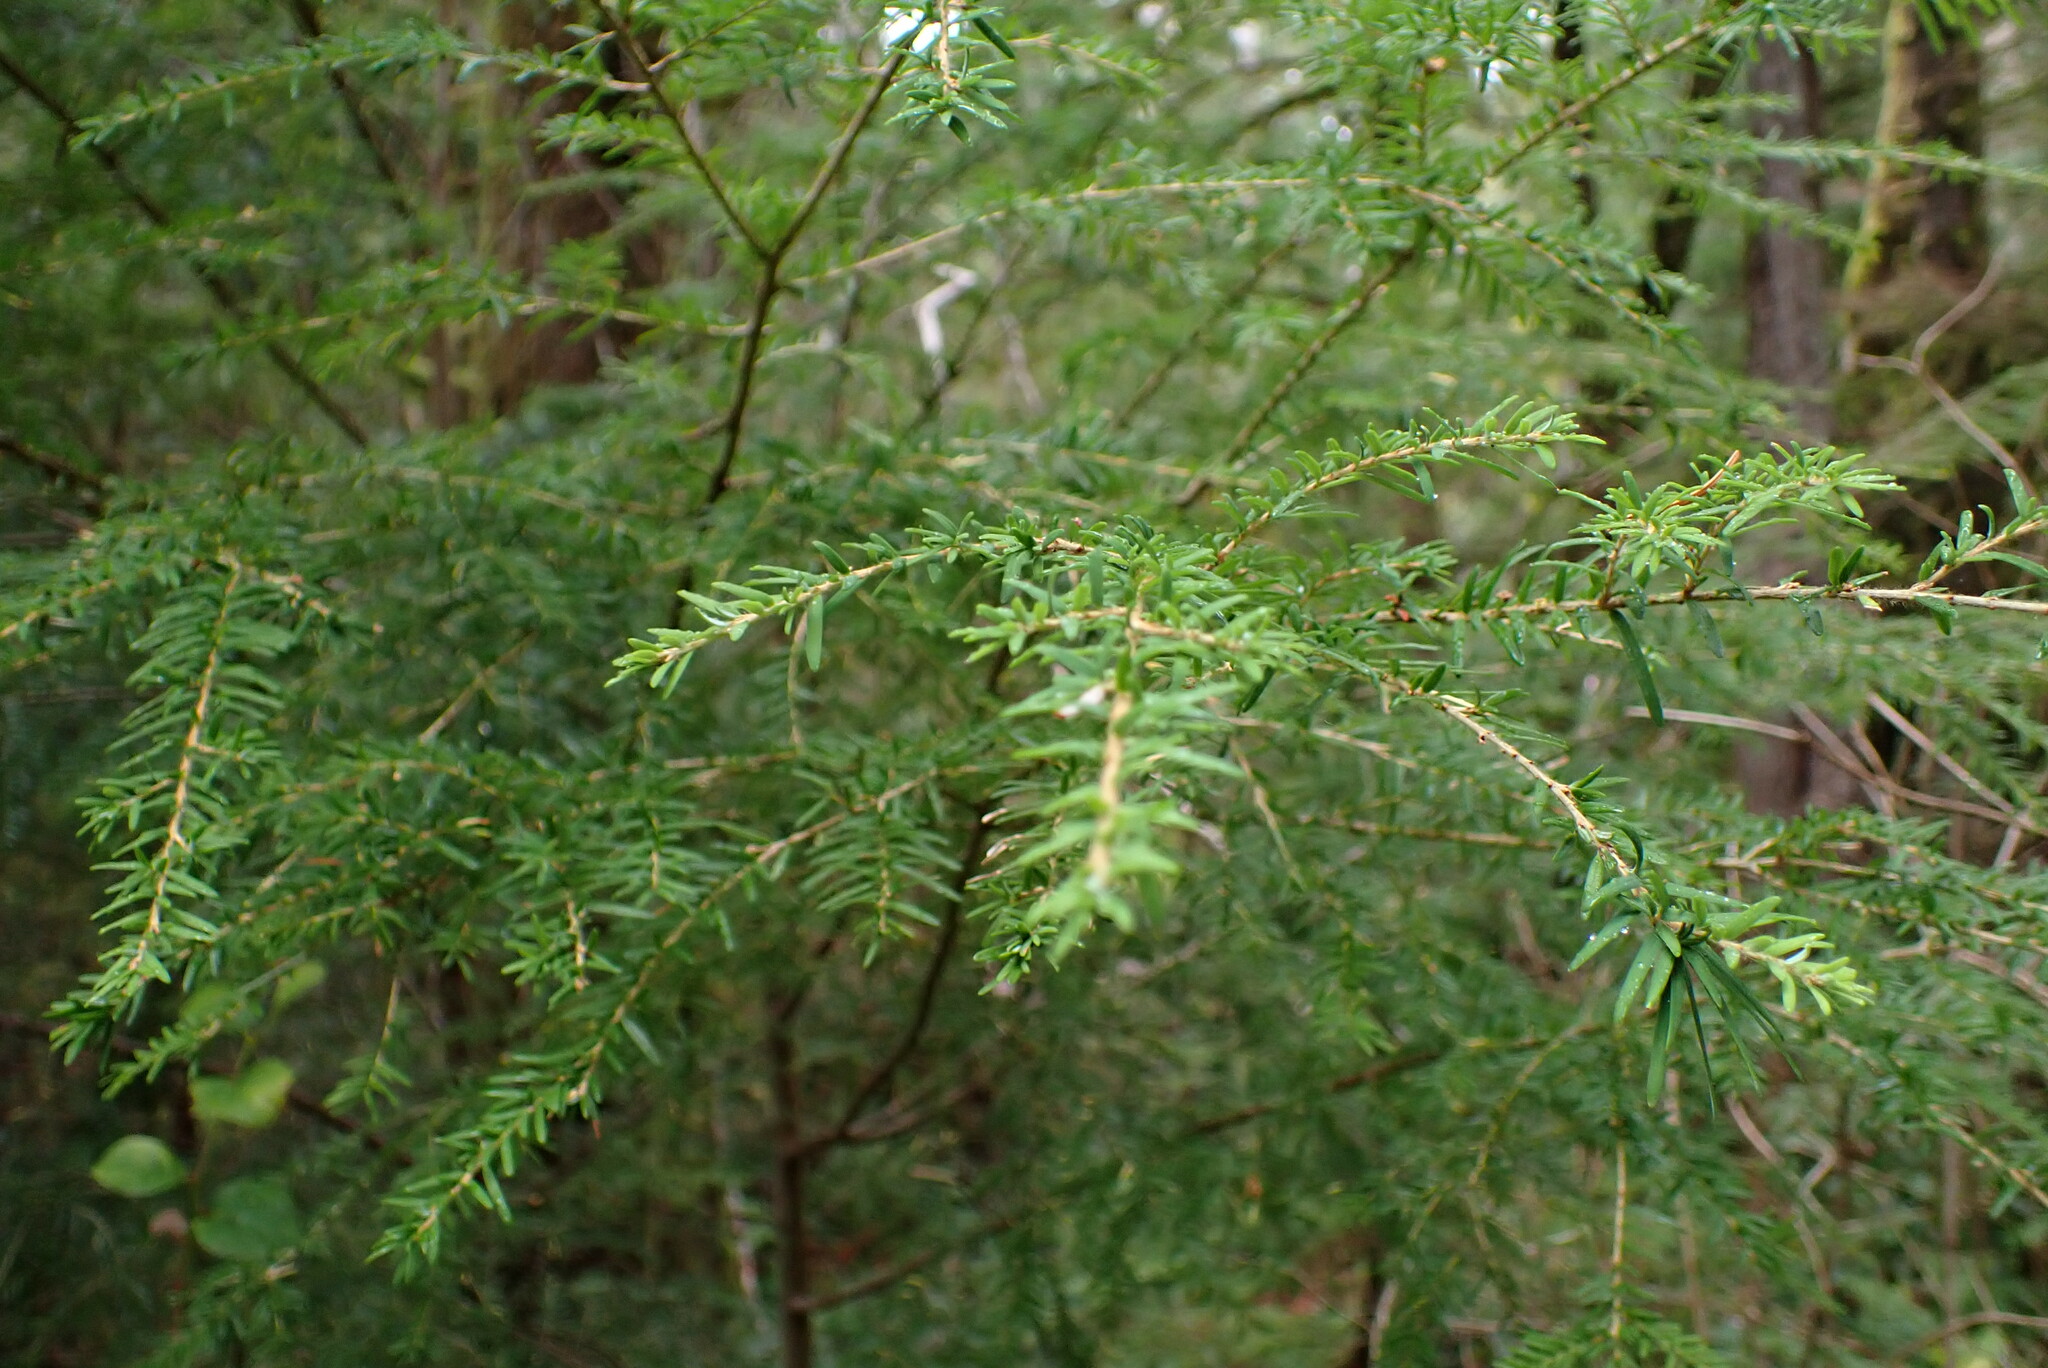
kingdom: Plantae
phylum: Tracheophyta
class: Pinopsida
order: Pinales
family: Pinaceae
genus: Tsuga
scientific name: Tsuga heterophylla
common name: Western hemlock
